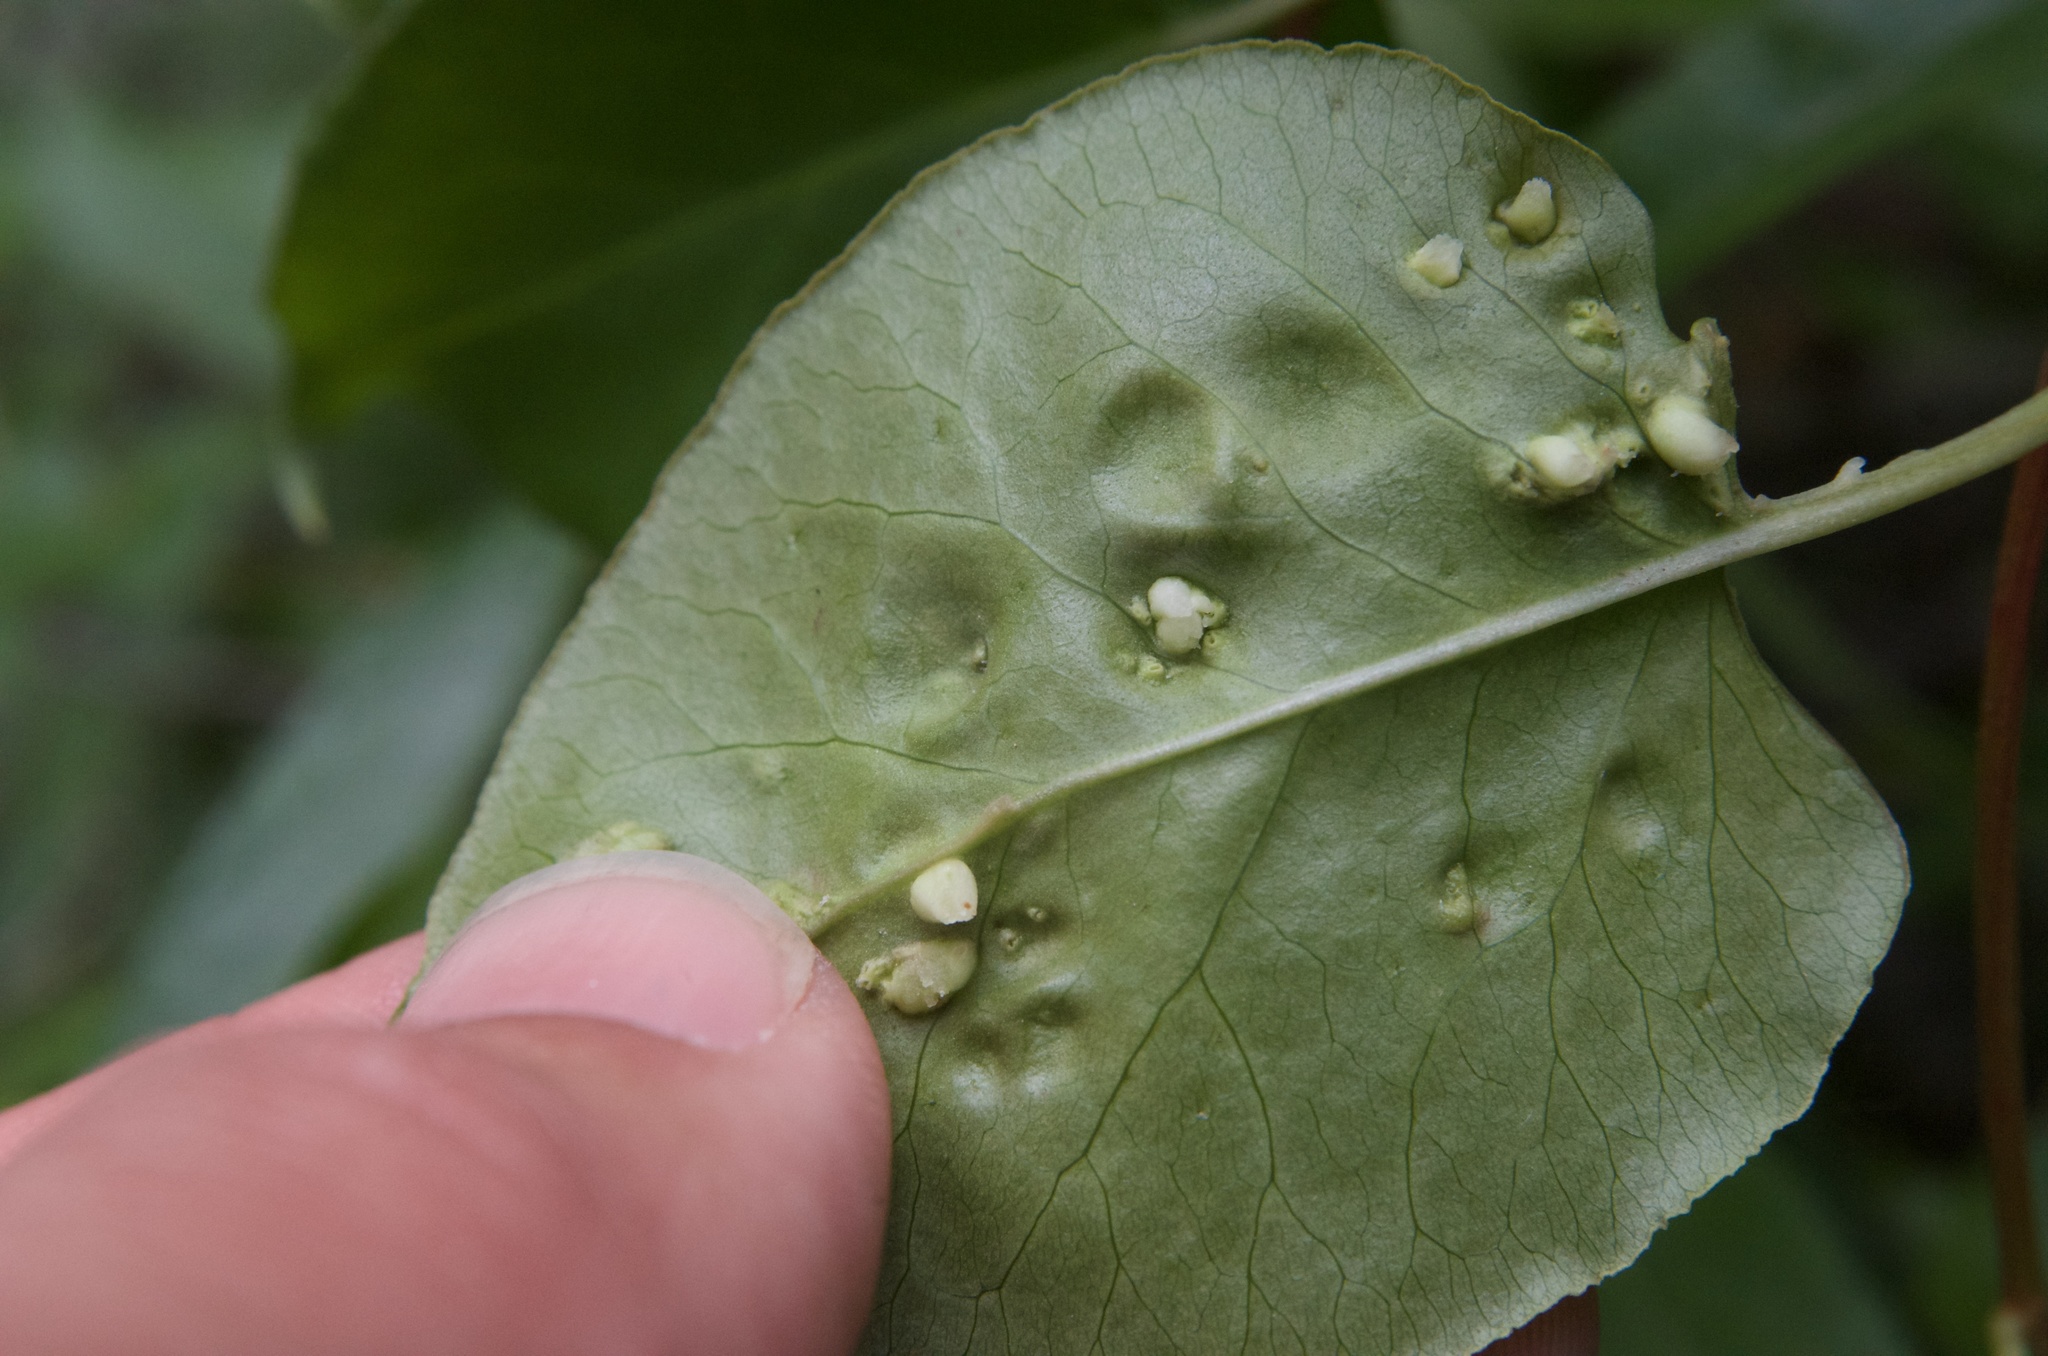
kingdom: Animalia
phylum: Arthropoda
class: Arachnida
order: Trombidiformes
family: Eriophyidae
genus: Aceria
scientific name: Aceria lamii
